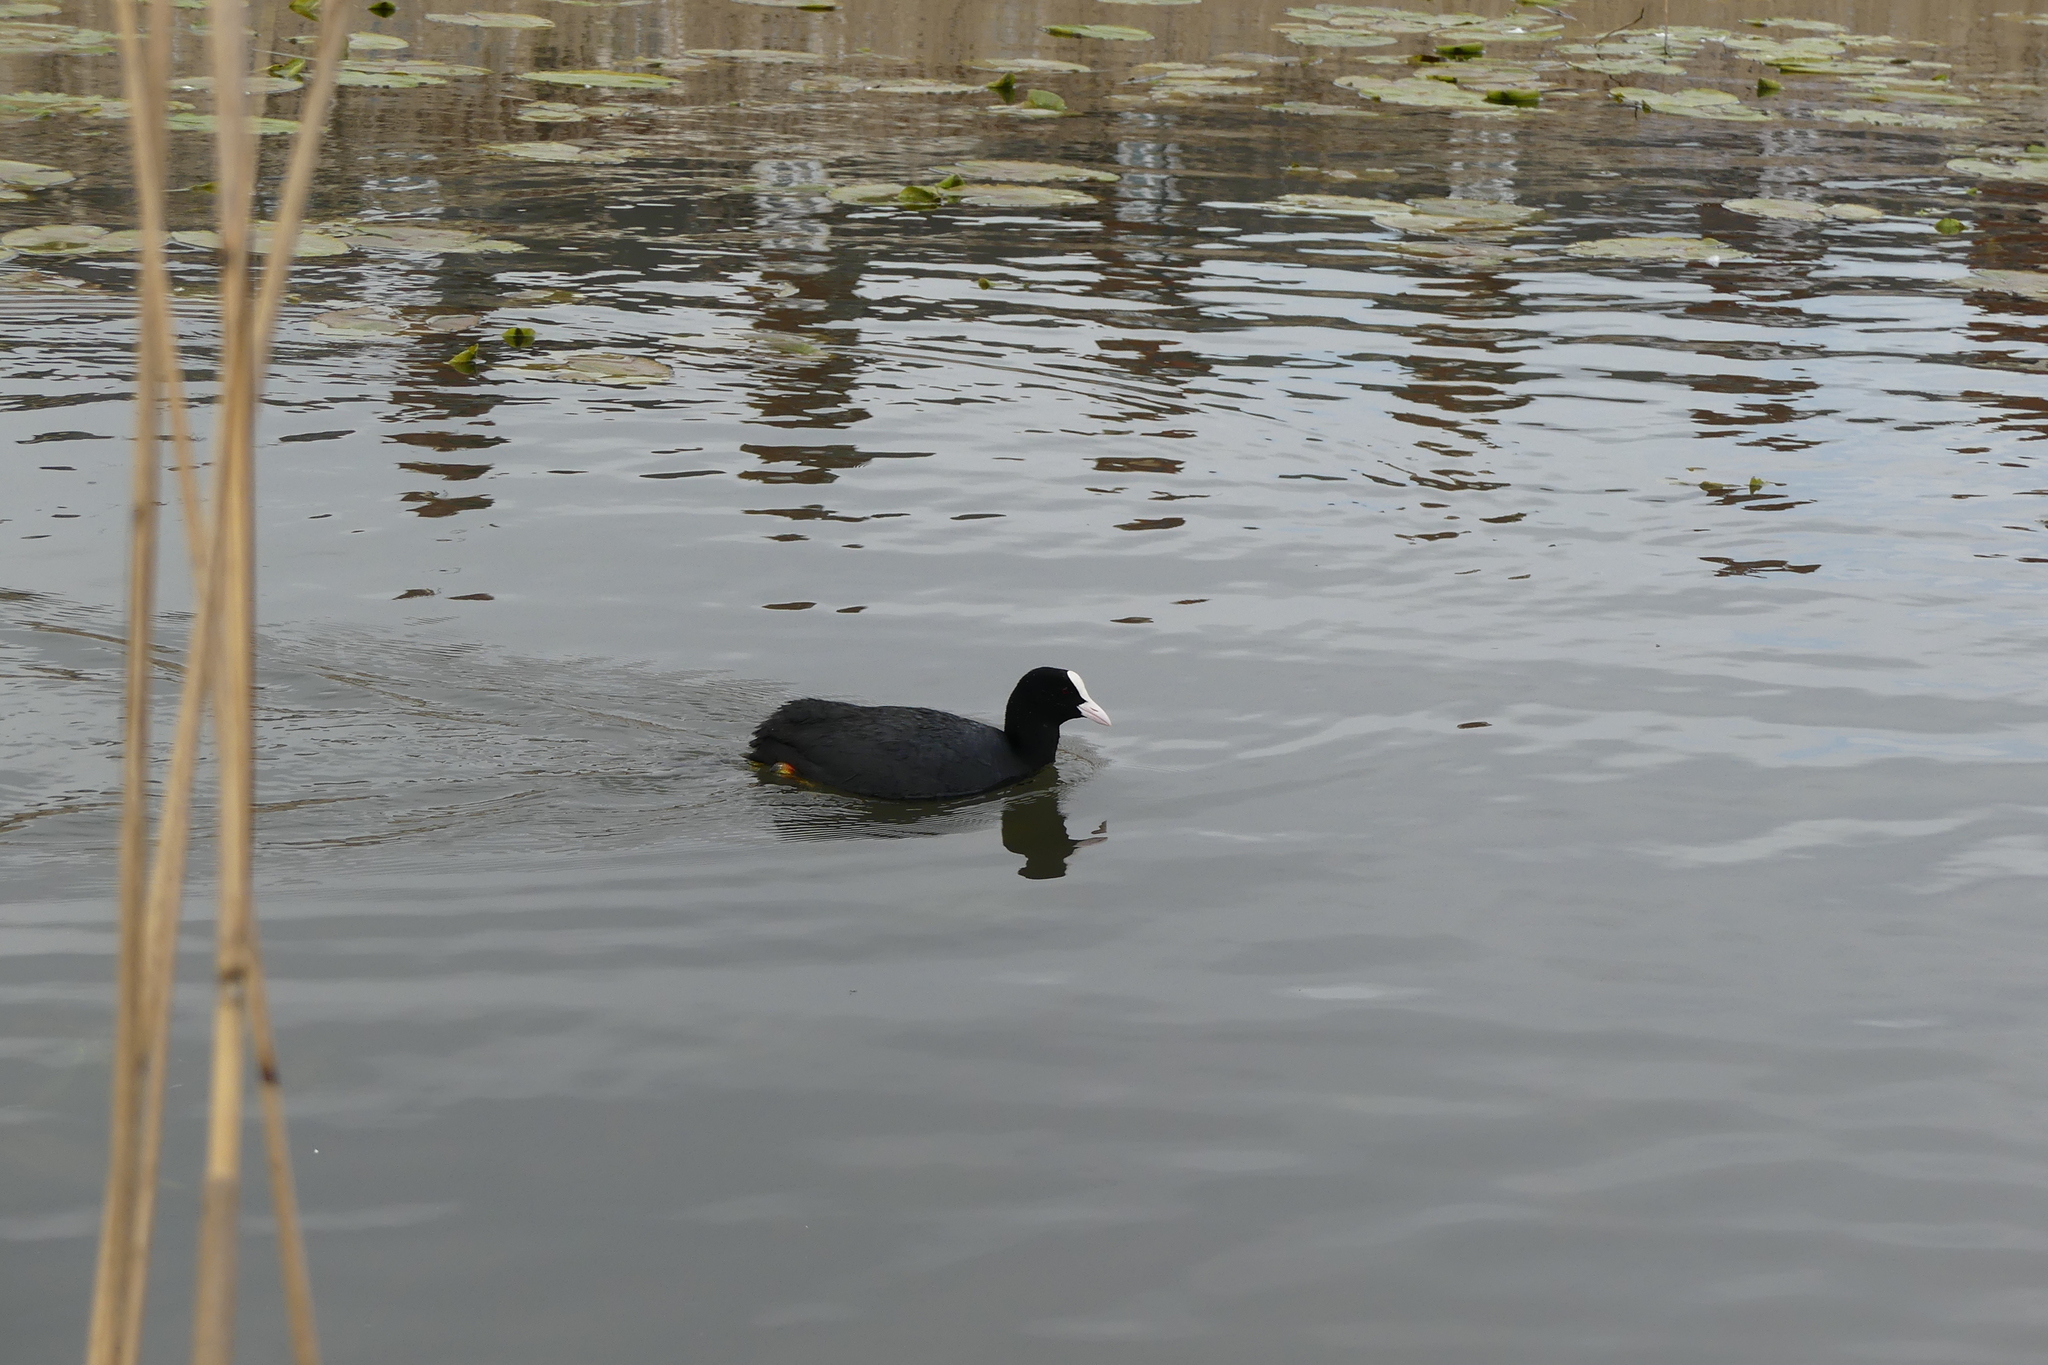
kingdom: Animalia
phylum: Chordata
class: Aves
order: Gruiformes
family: Rallidae
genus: Fulica
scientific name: Fulica atra
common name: Eurasian coot
